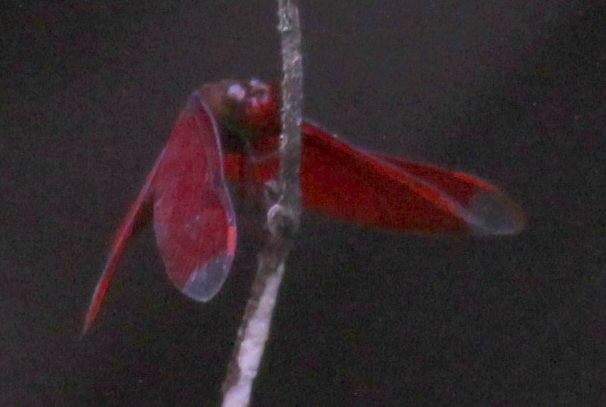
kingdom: Animalia
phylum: Arthropoda
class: Insecta
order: Odonata
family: Libellulidae
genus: Neurothemis
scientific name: Neurothemis fulvia
